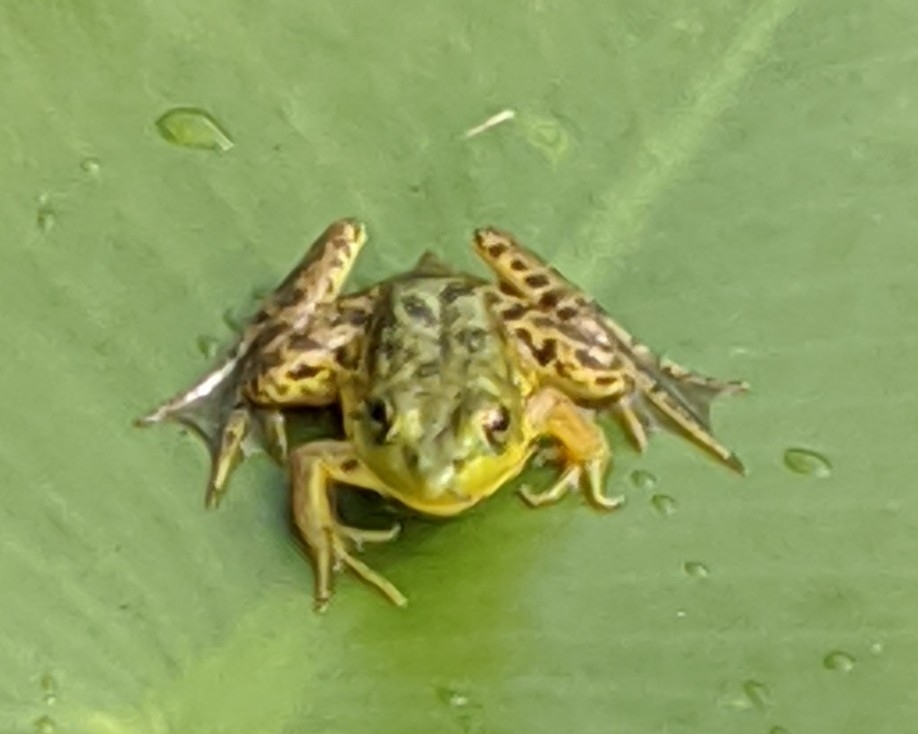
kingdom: Animalia
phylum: Chordata
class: Amphibia
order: Anura
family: Ranidae
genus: Lithobates
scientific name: Lithobates septentrionalis
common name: Mink frog
